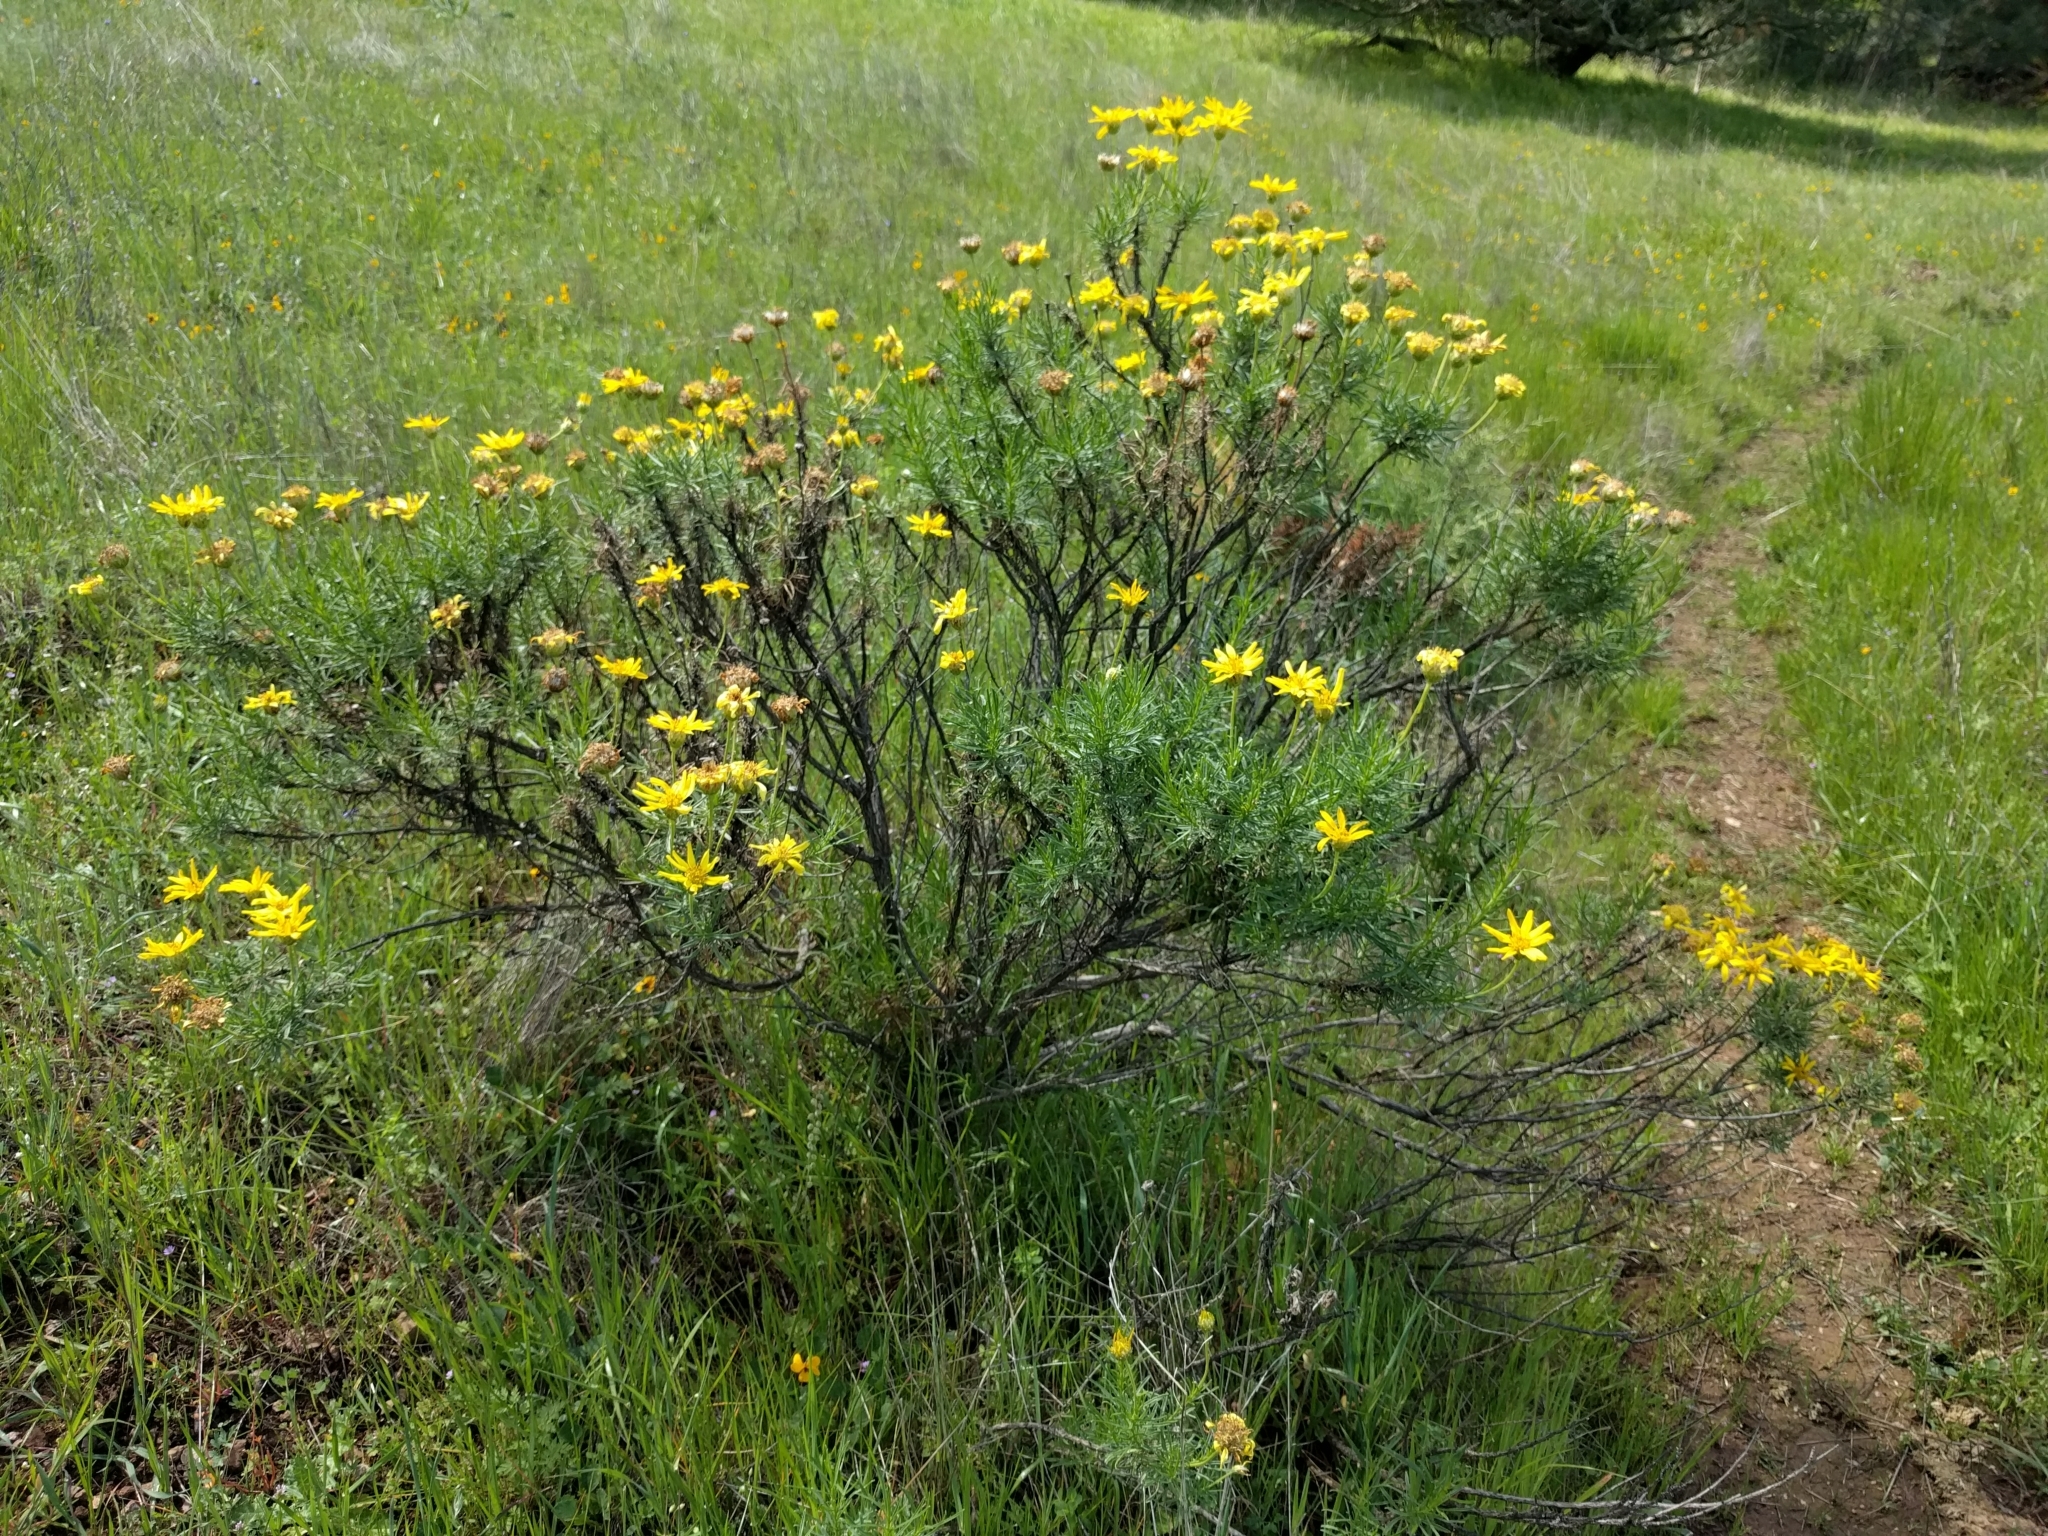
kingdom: Plantae
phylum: Tracheophyta
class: Magnoliopsida
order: Asterales
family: Asteraceae
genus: Ericameria
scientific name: Ericameria linearifolia
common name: Interior goldenbush
